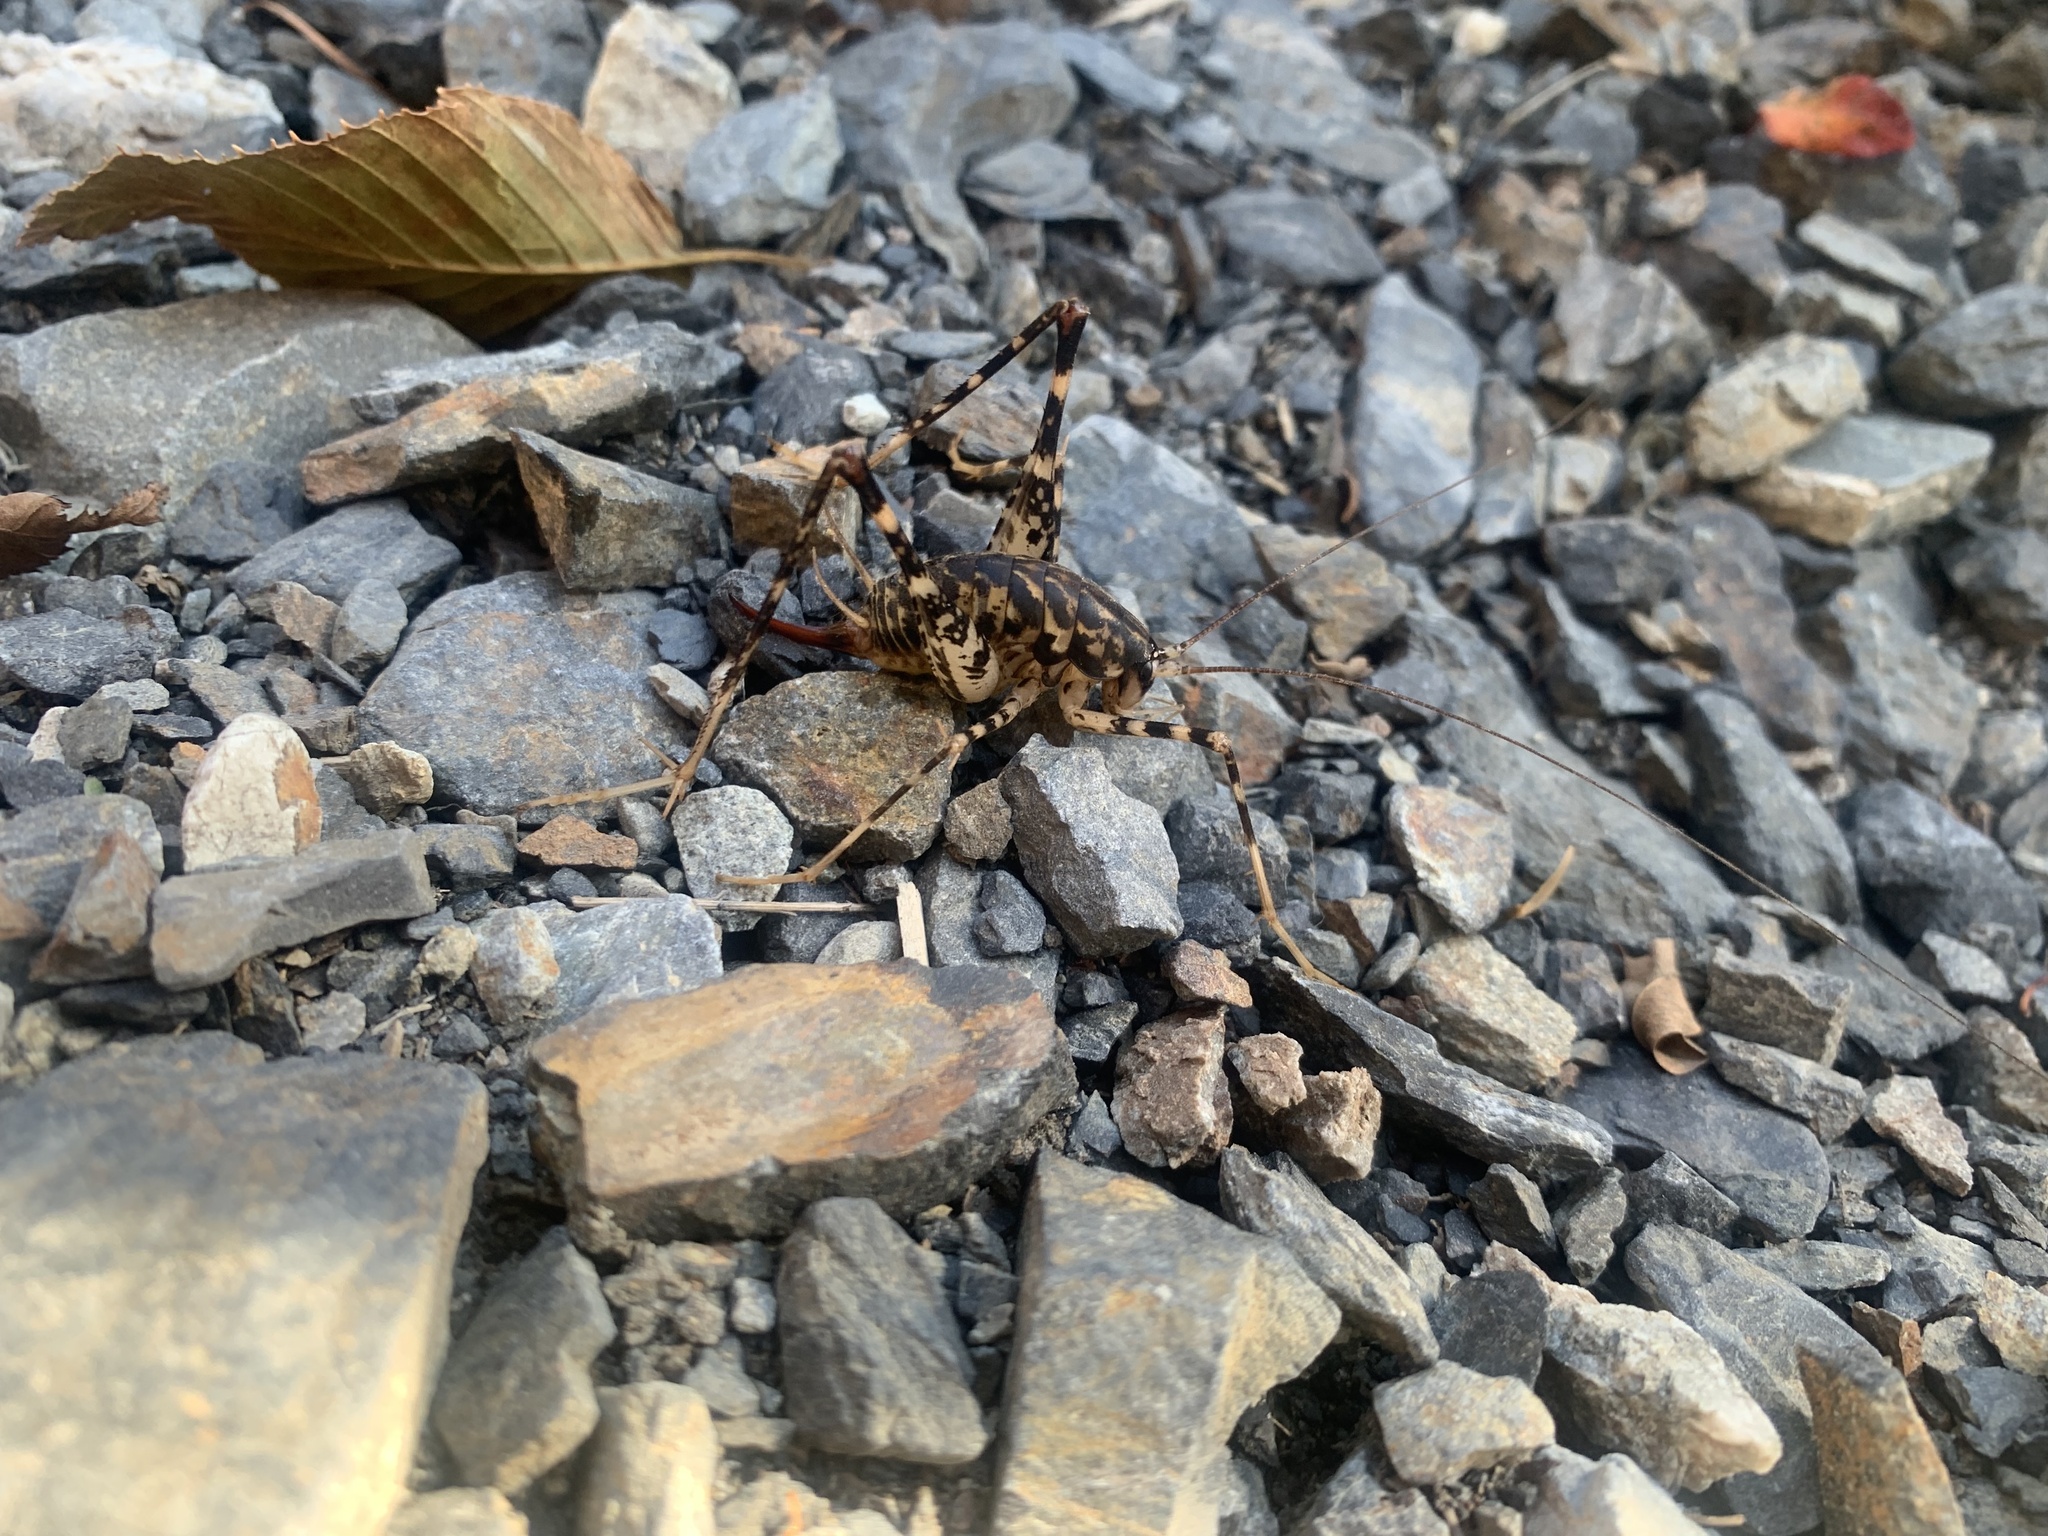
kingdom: Animalia
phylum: Arthropoda
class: Insecta
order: Orthoptera
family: Rhaphidophoridae
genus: Diestrammena
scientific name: Diestrammena japanica
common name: Japanese camel cricket
